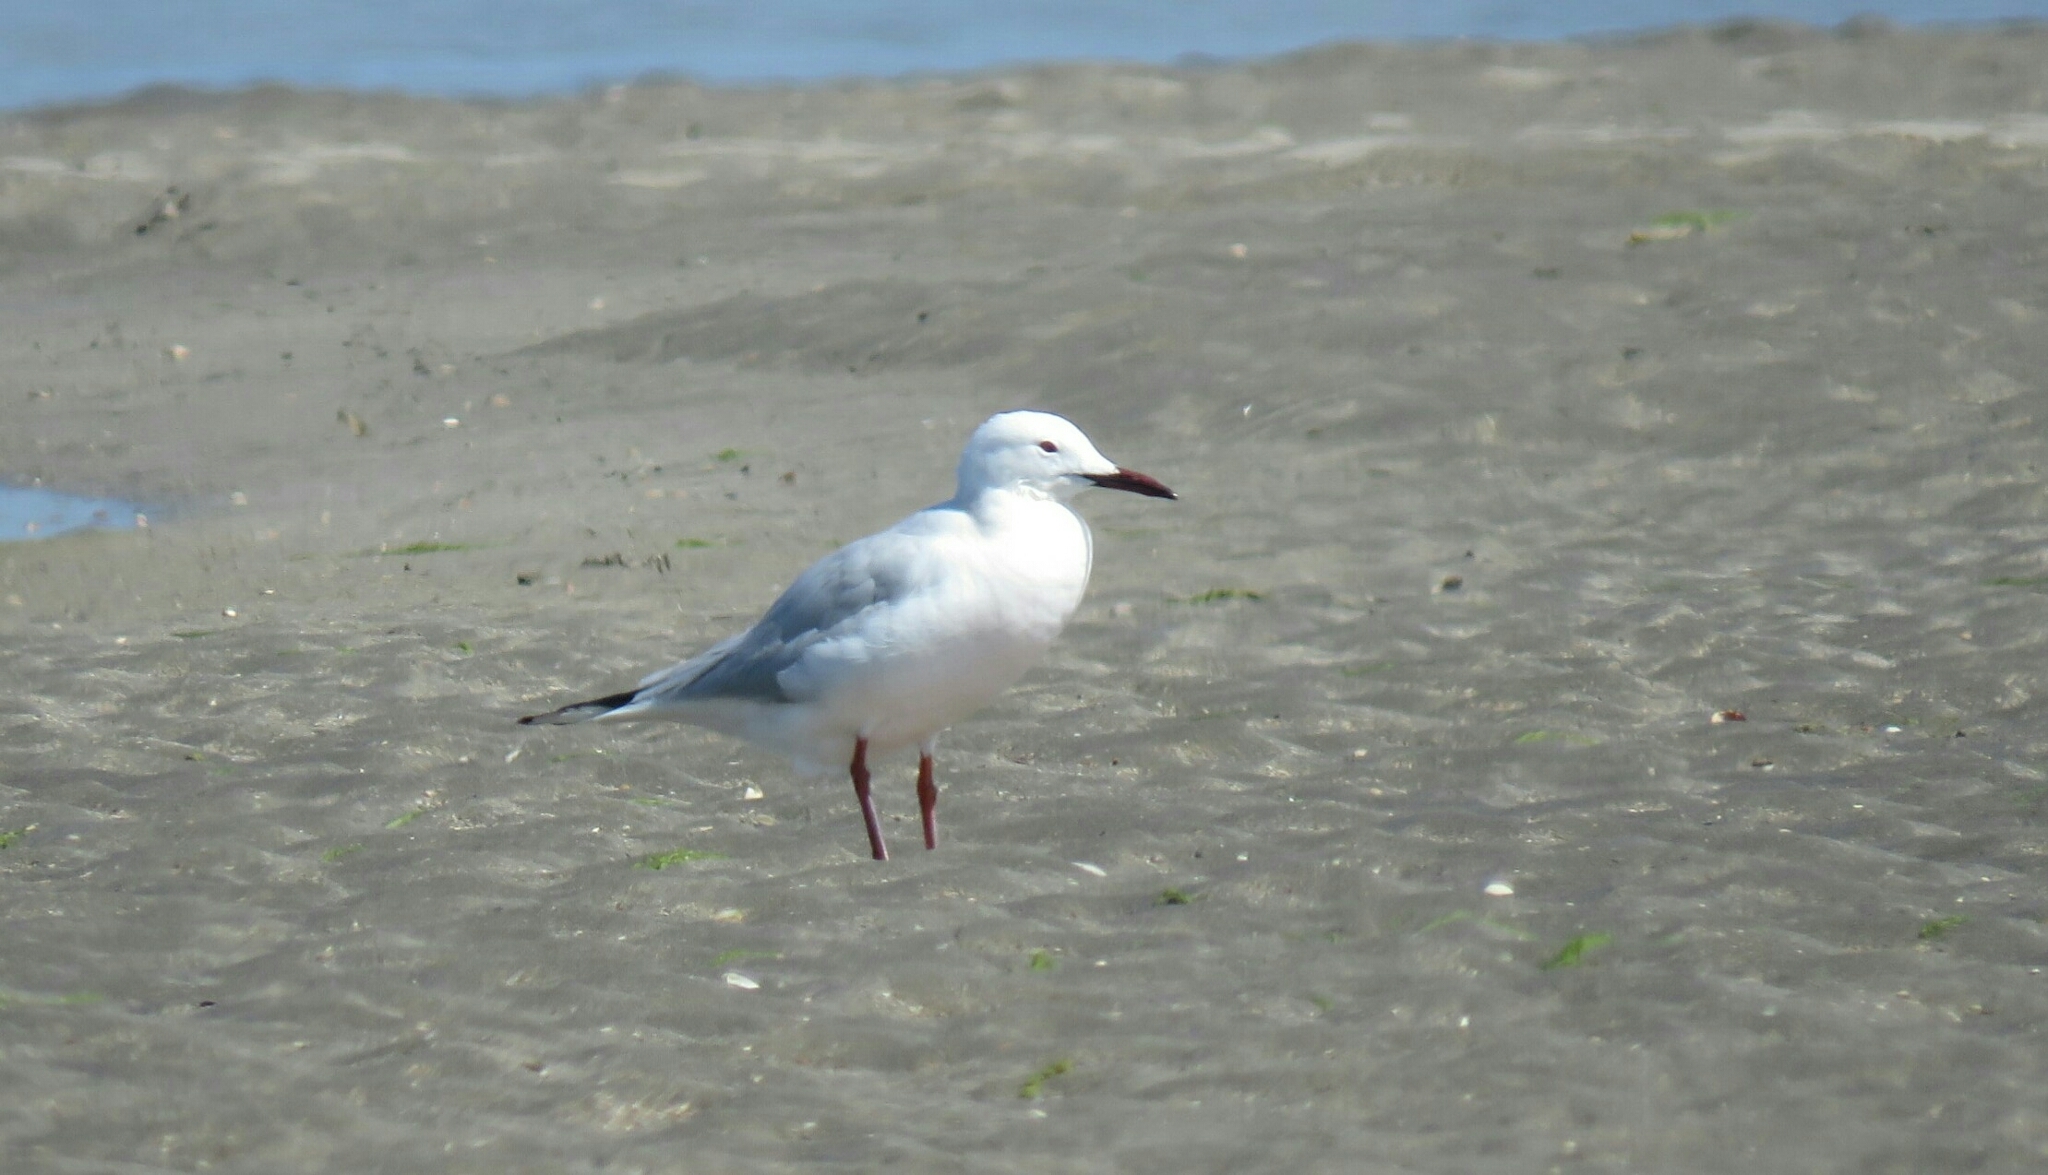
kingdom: Animalia
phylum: Chordata
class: Aves
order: Charadriiformes
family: Laridae
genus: Chroicocephalus
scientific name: Chroicocephalus genei
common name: Slender-billed gull
